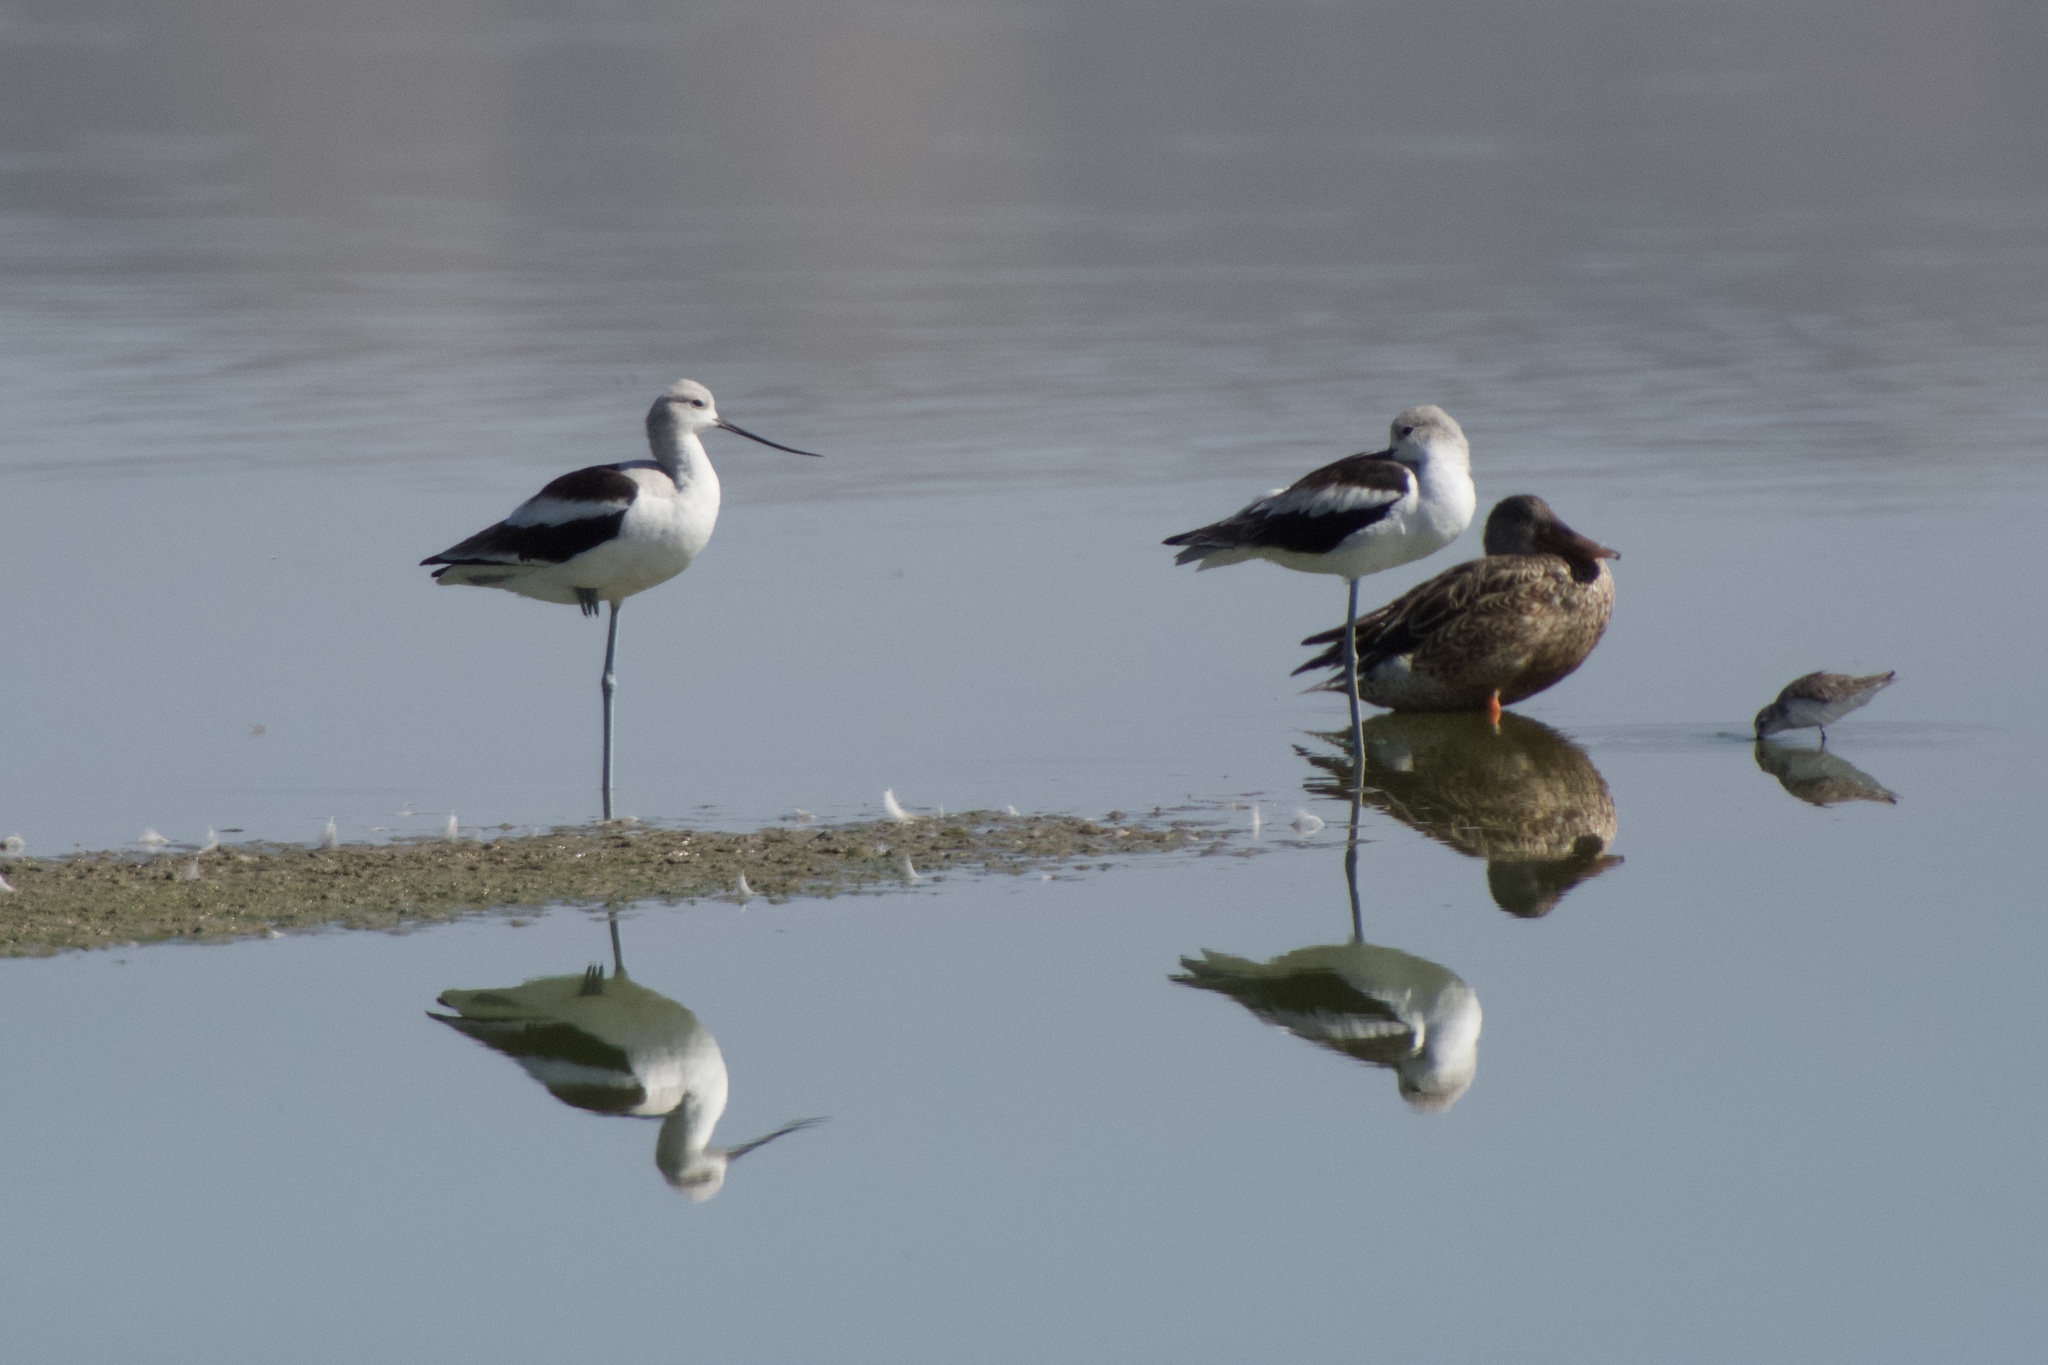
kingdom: Animalia
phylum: Chordata
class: Aves
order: Charadriiformes
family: Recurvirostridae
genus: Recurvirostra
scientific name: Recurvirostra americana
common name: American avocet
